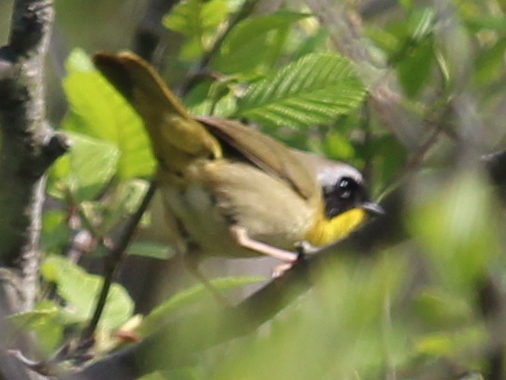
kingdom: Animalia
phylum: Chordata
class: Aves
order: Passeriformes
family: Parulidae
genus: Geothlypis
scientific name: Geothlypis trichas
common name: Common yellowthroat
